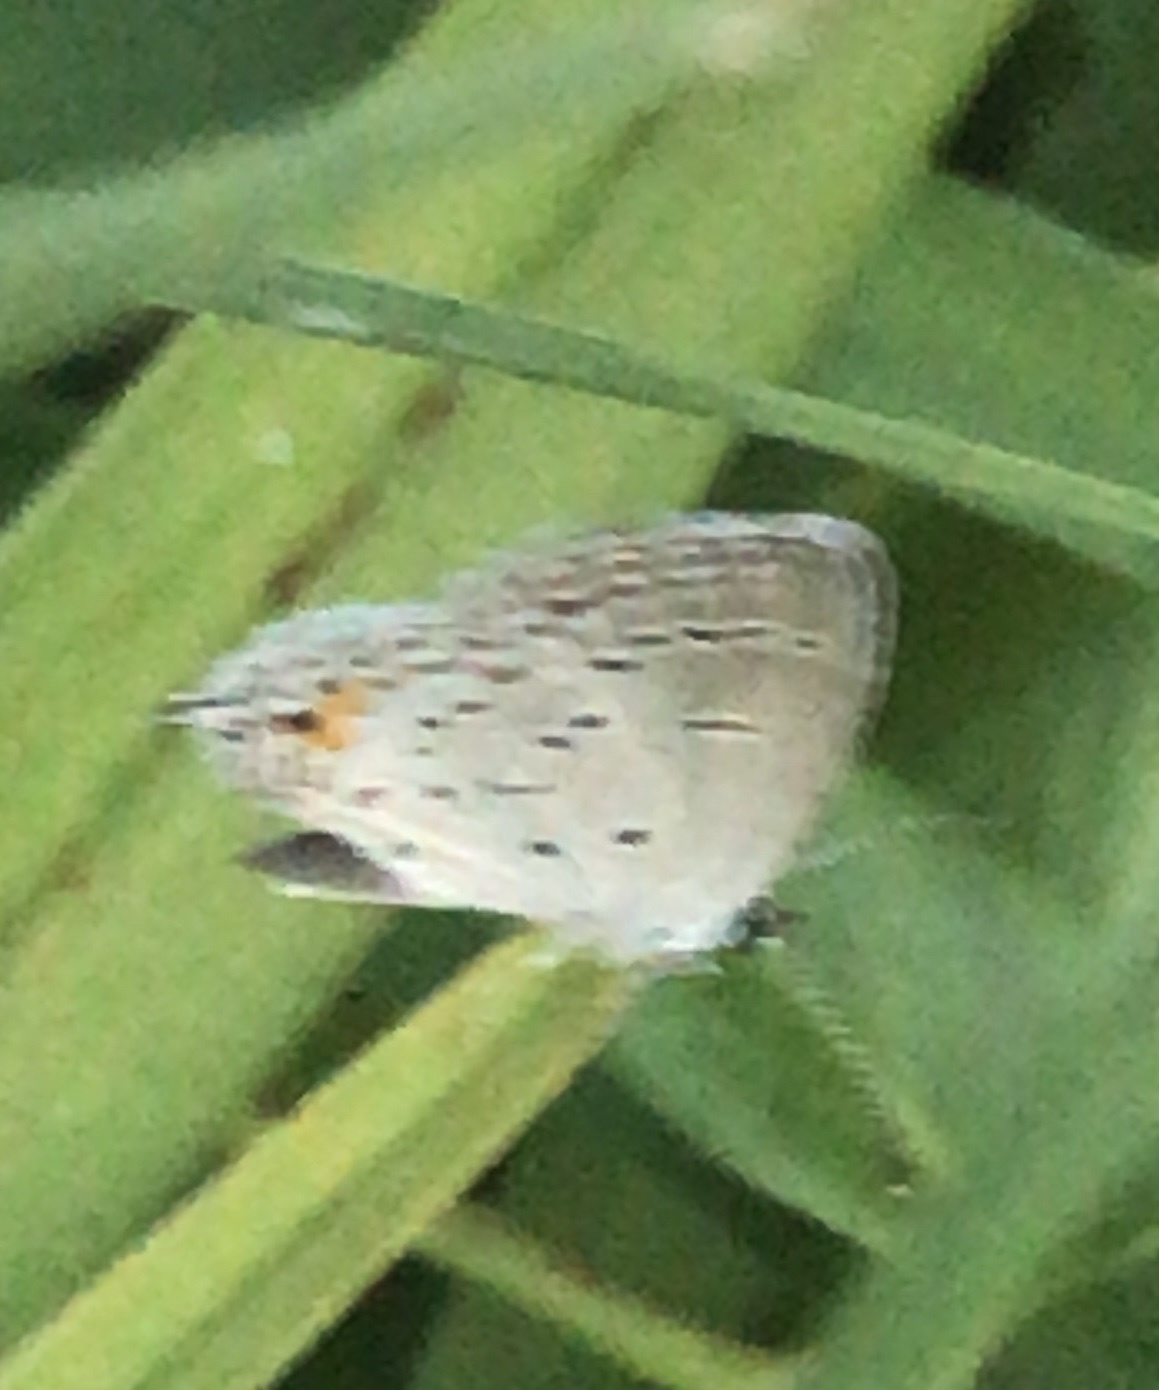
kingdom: Animalia
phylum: Arthropoda
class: Insecta
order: Lepidoptera
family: Lycaenidae
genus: Elkalyce
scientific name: Elkalyce comyntas
